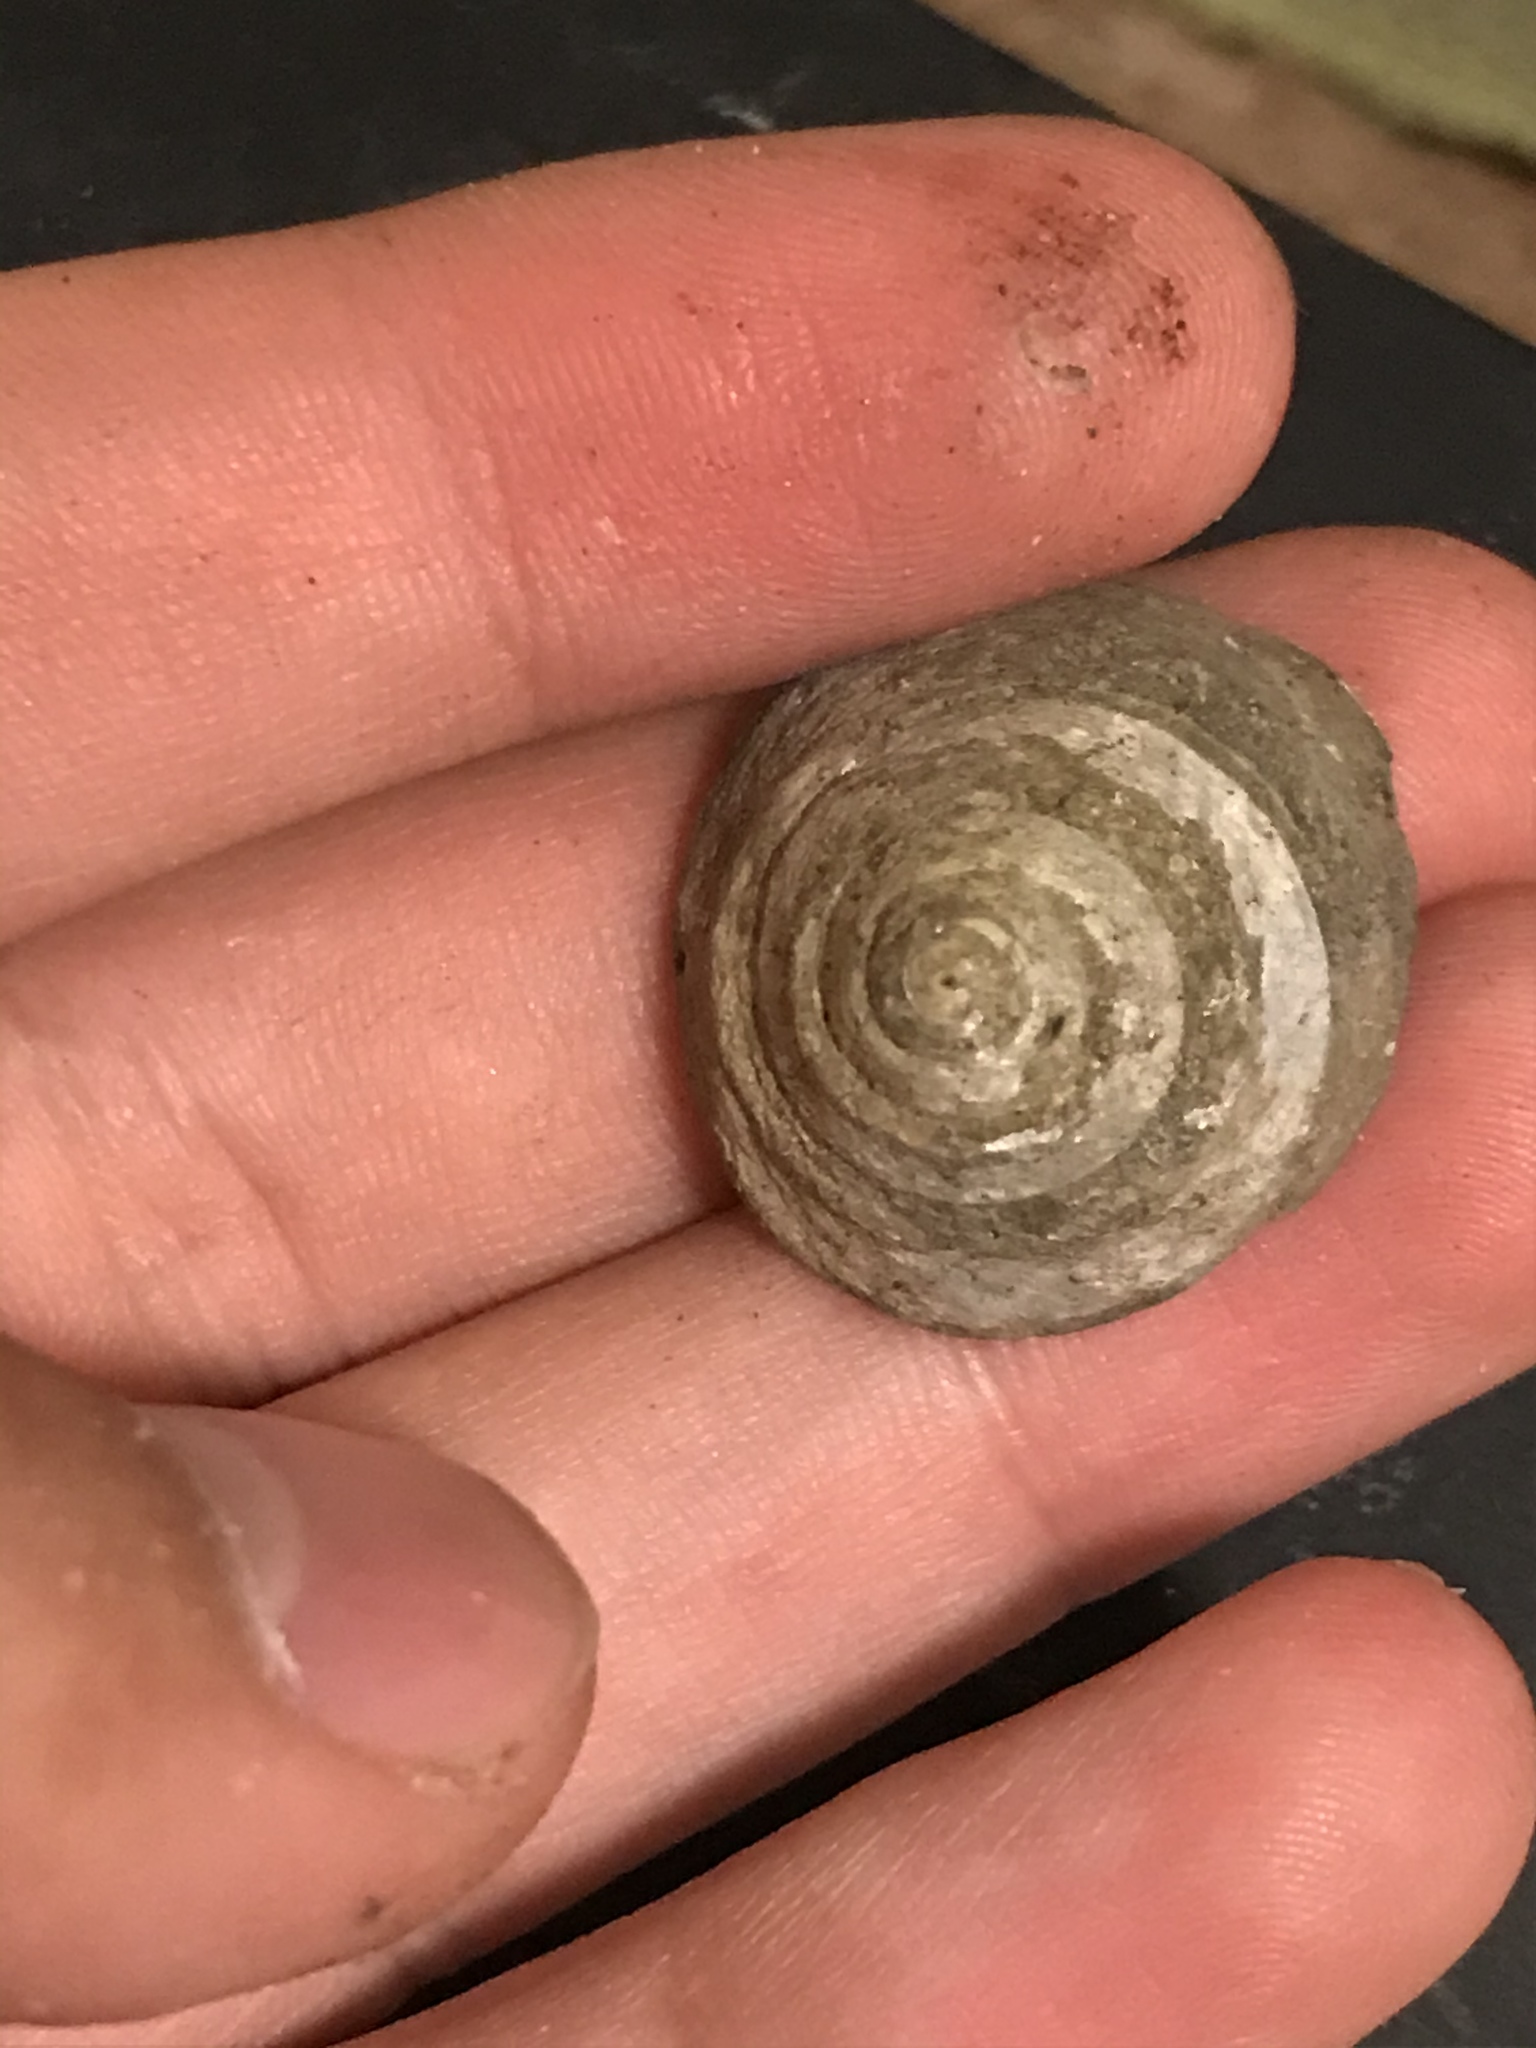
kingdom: Animalia
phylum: Mollusca
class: Gastropoda
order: Trochida
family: Tegulidae
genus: Tegula
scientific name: Tegula montereyi
